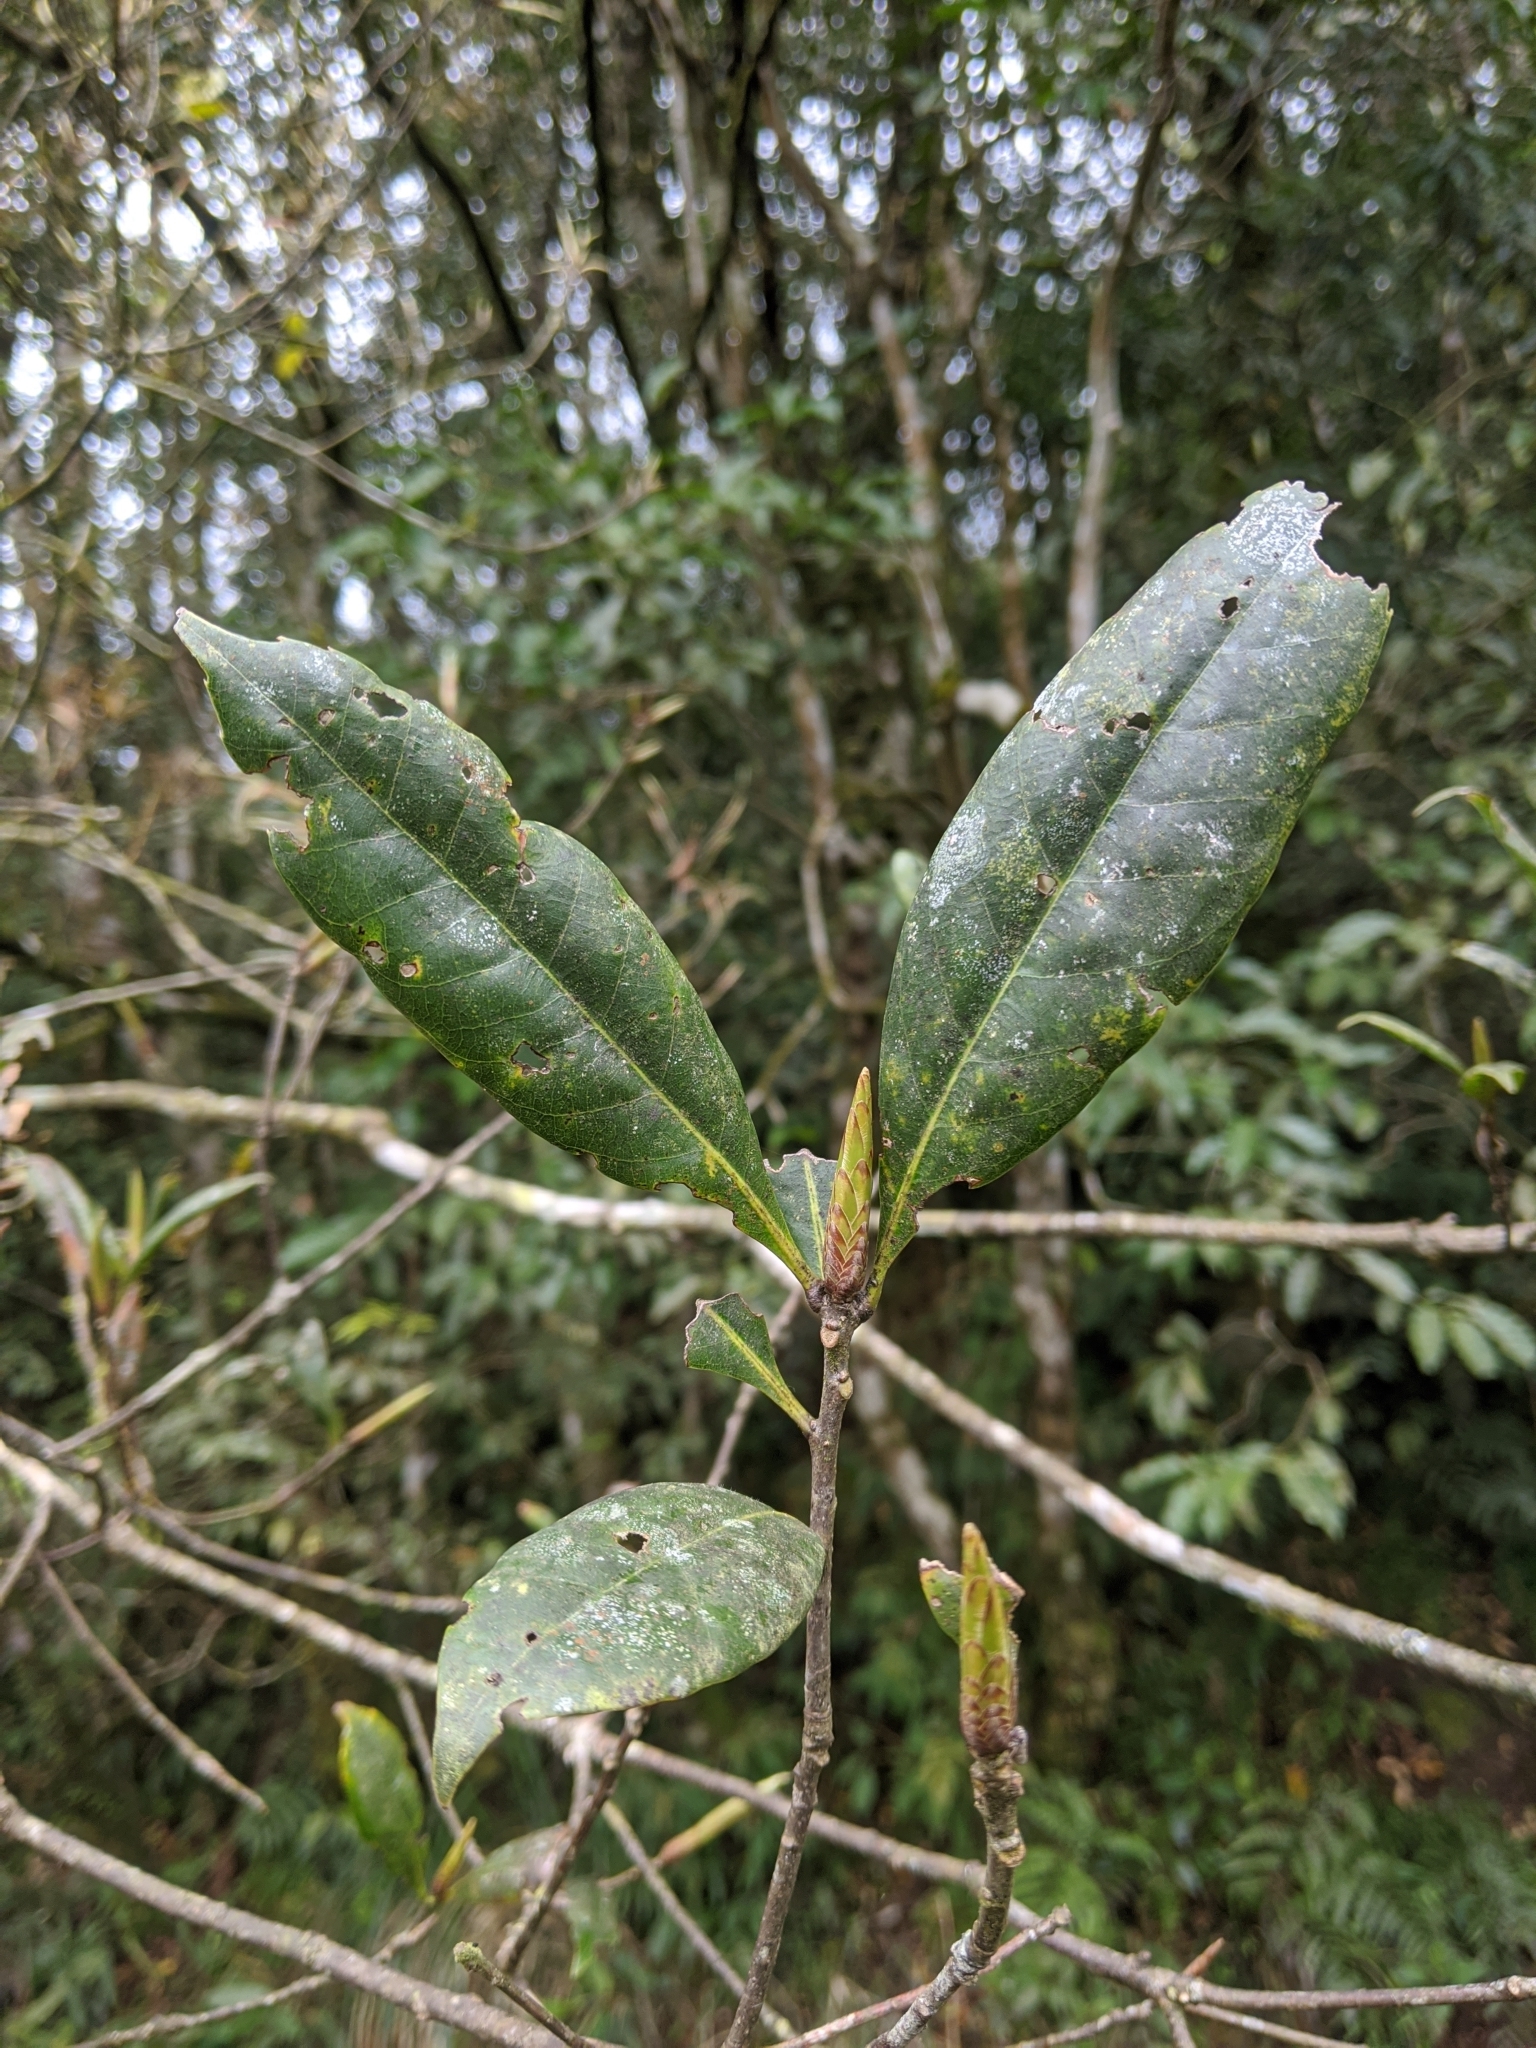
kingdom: Plantae
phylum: Tracheophyta
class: Magnoliopsida
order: Fagales
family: Fagaceae
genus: Quercus
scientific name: Quercus sessilifolia
